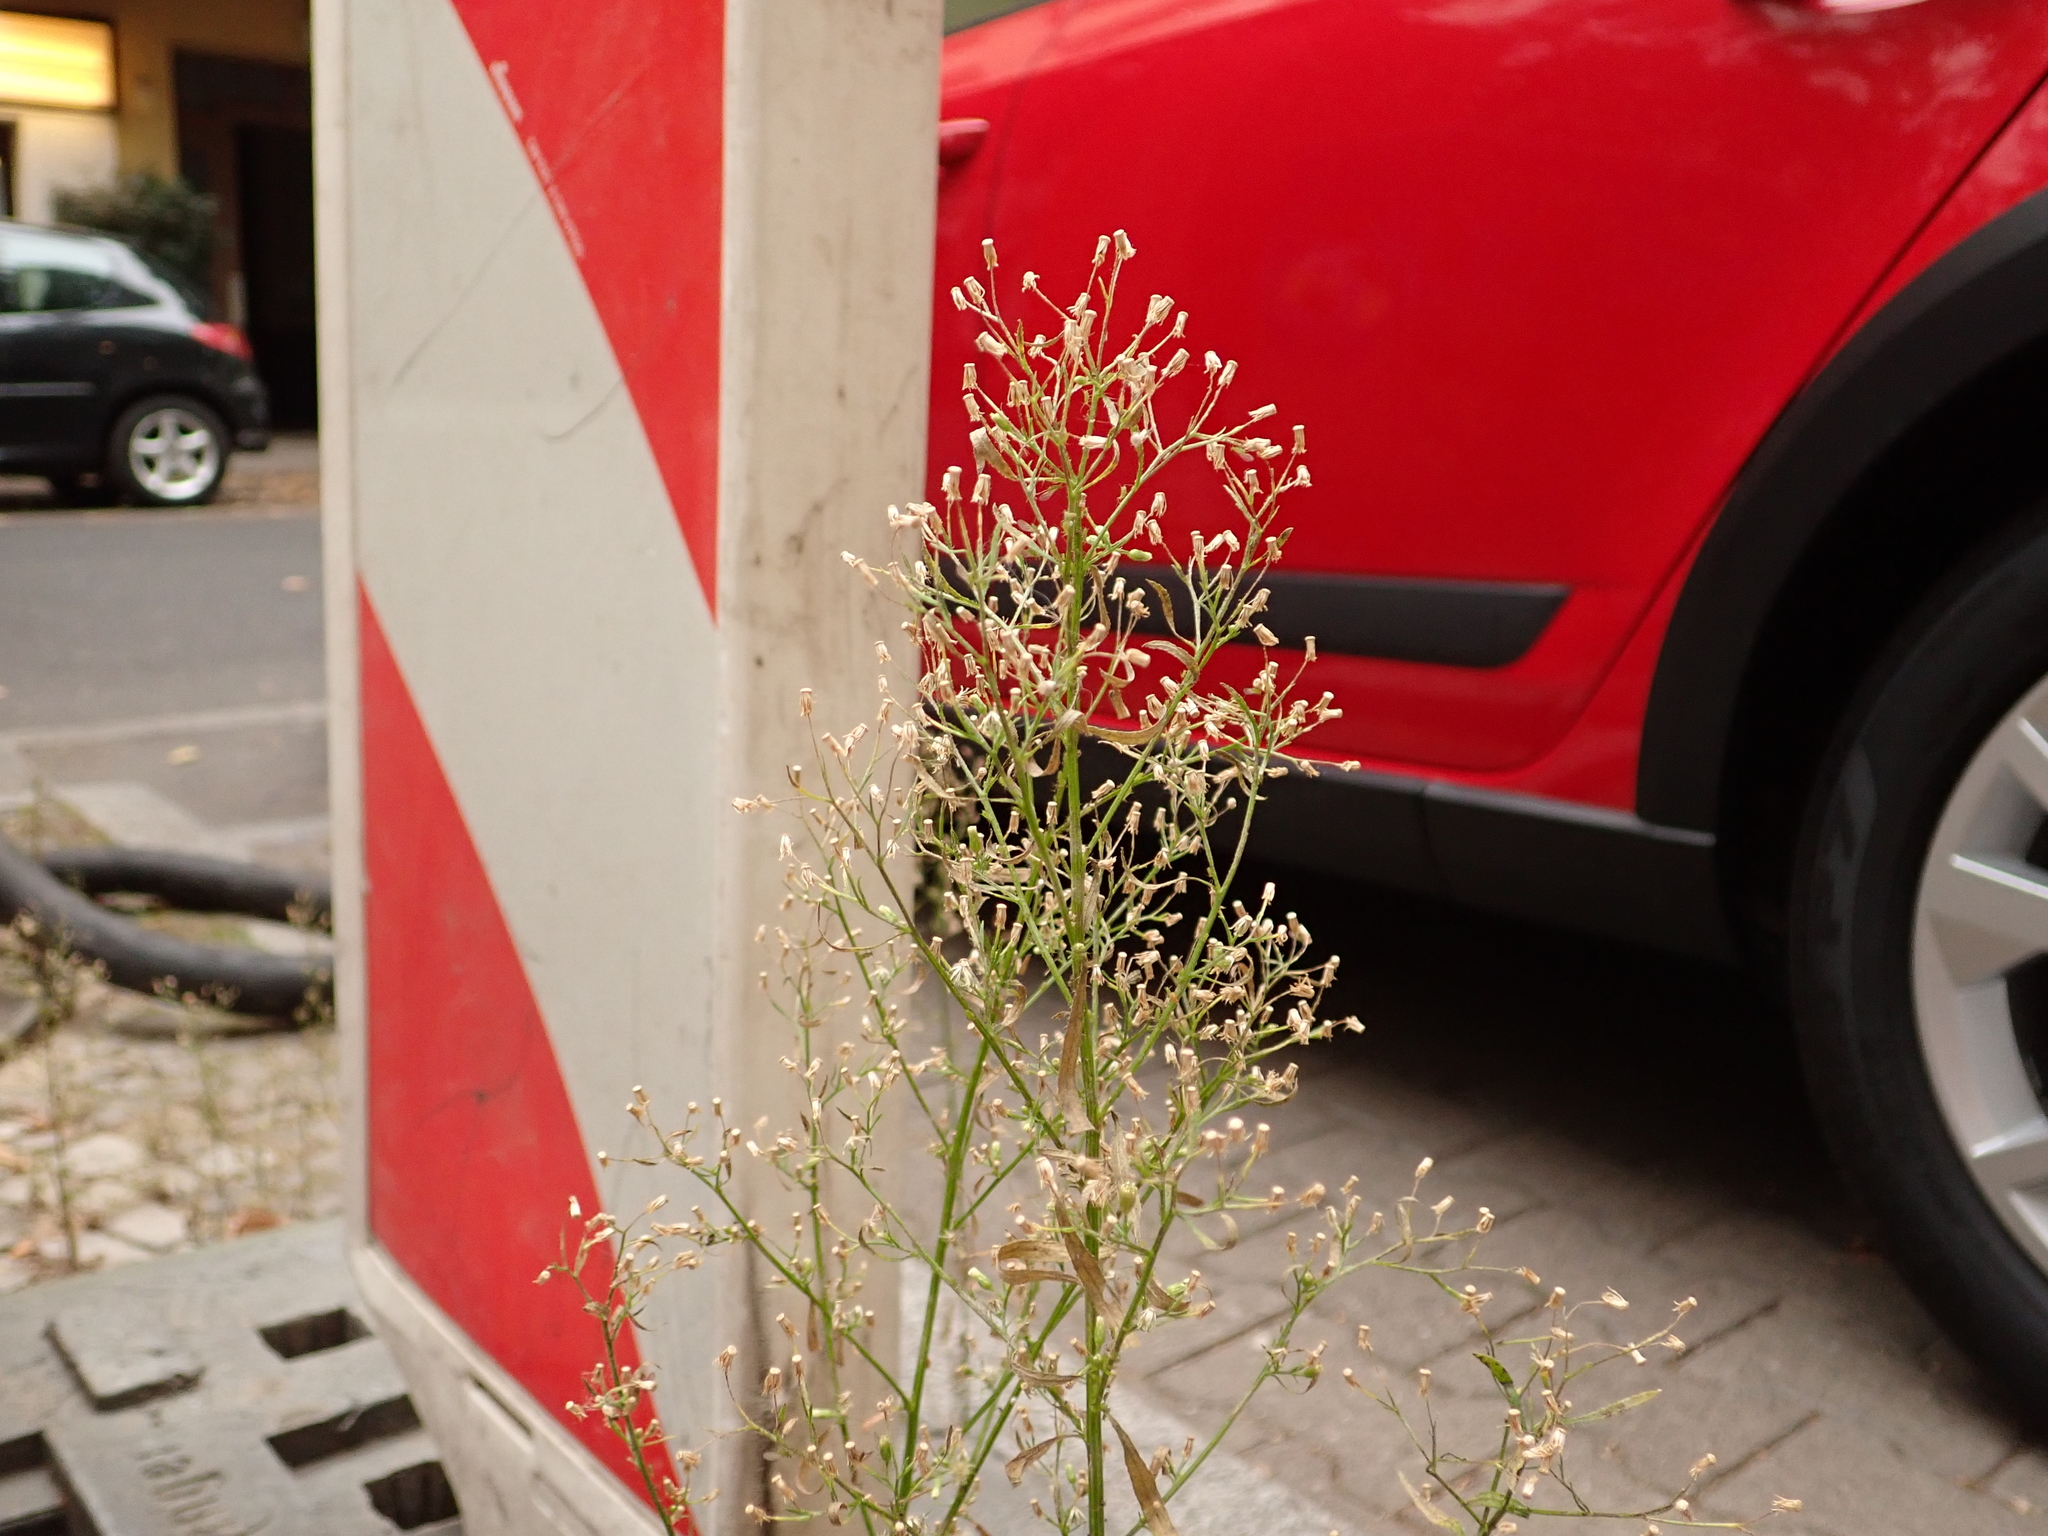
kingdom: Plantae
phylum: Tracheophyta
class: Magnoliopsida
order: Asterales
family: Asteraceae
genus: Erigeron
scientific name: Erigeron canadensis
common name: Canadian fleabane
